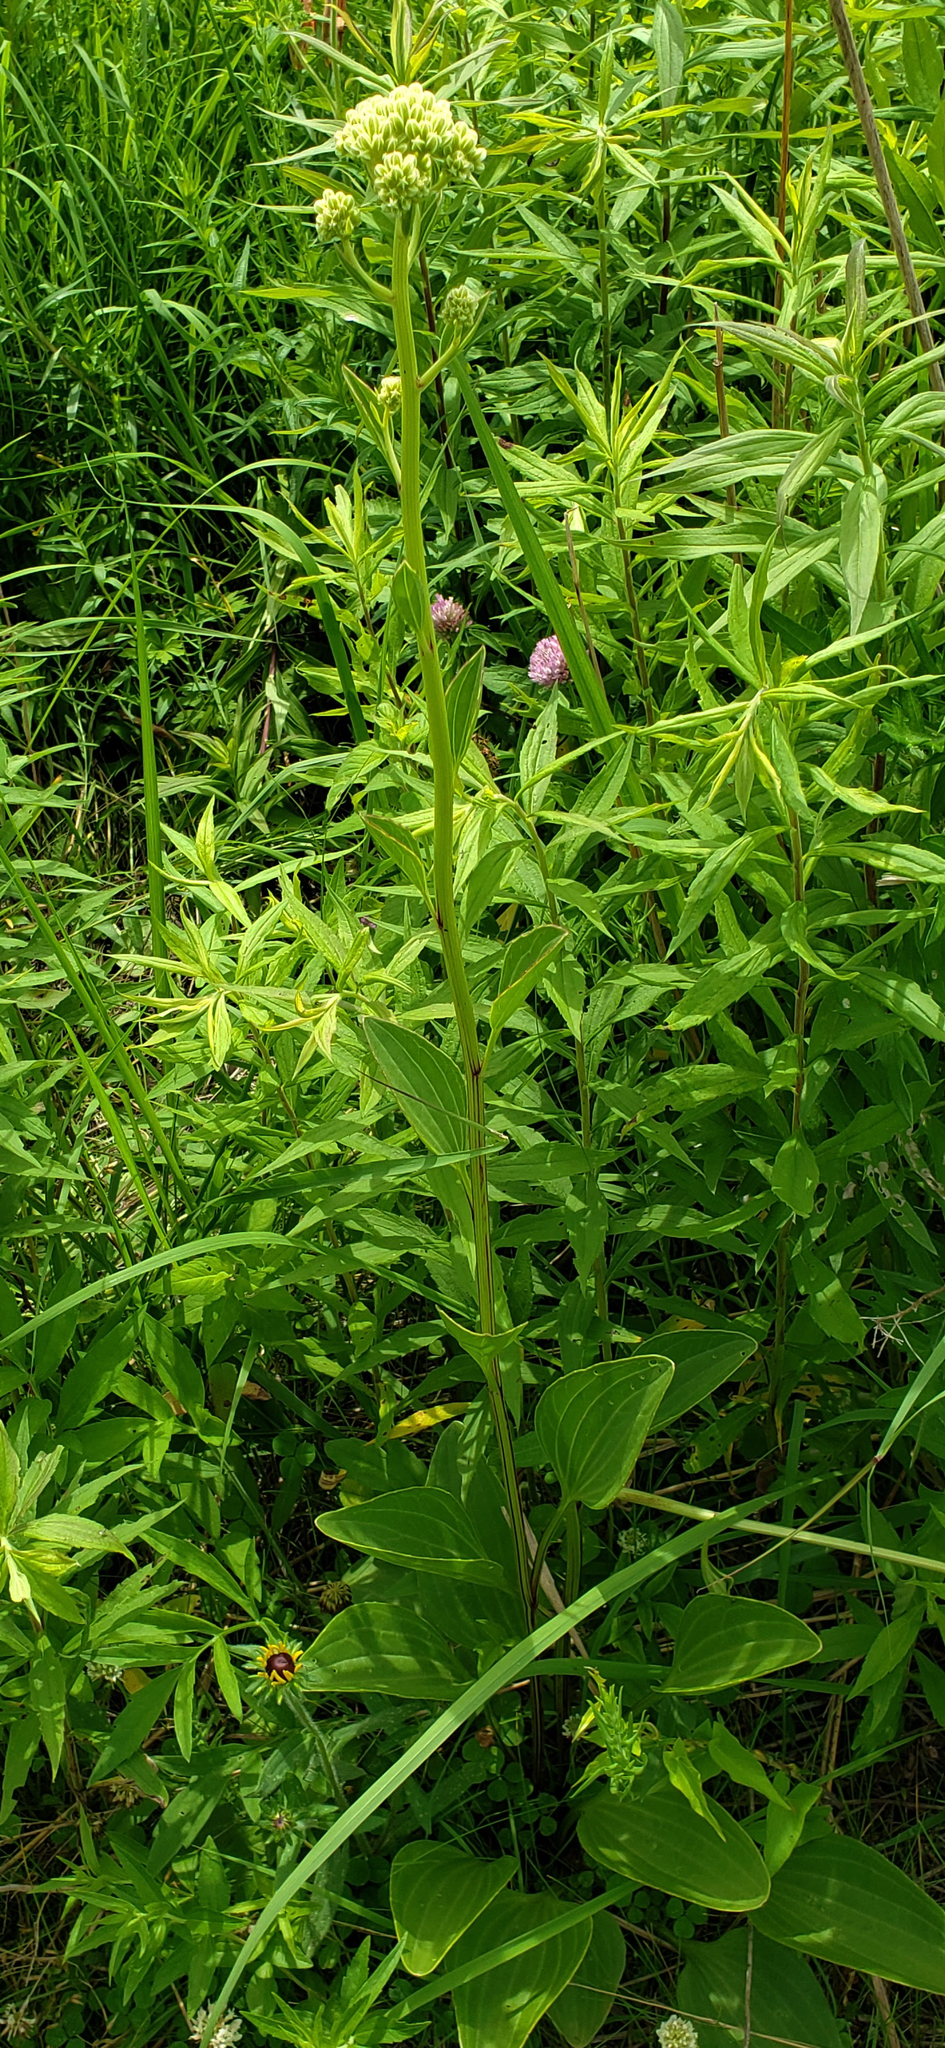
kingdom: Plantae
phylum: Tracheophyta
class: Magnoliopsida
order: Asterales
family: Asteraceae
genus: Arnoglossum
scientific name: Arnoglossum plantagineum
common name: Groove-stemmed indian-plantain
